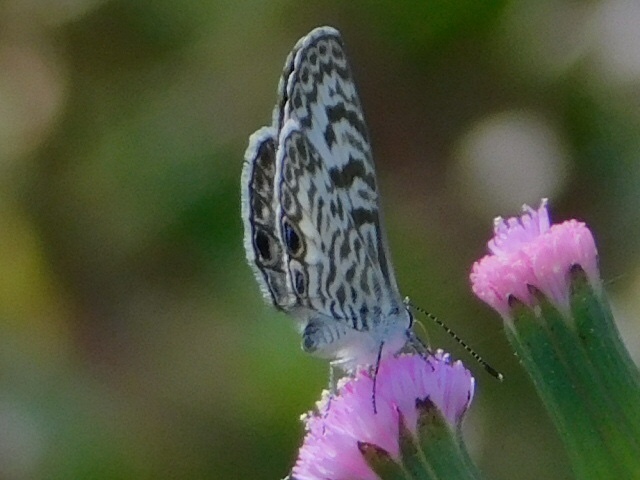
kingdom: Animalia
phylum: Arthropoda
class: Insecta
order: Lepidoptera
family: Lycaenidae
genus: Leptotes
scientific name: Leptotes cassius
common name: Cassius blue
